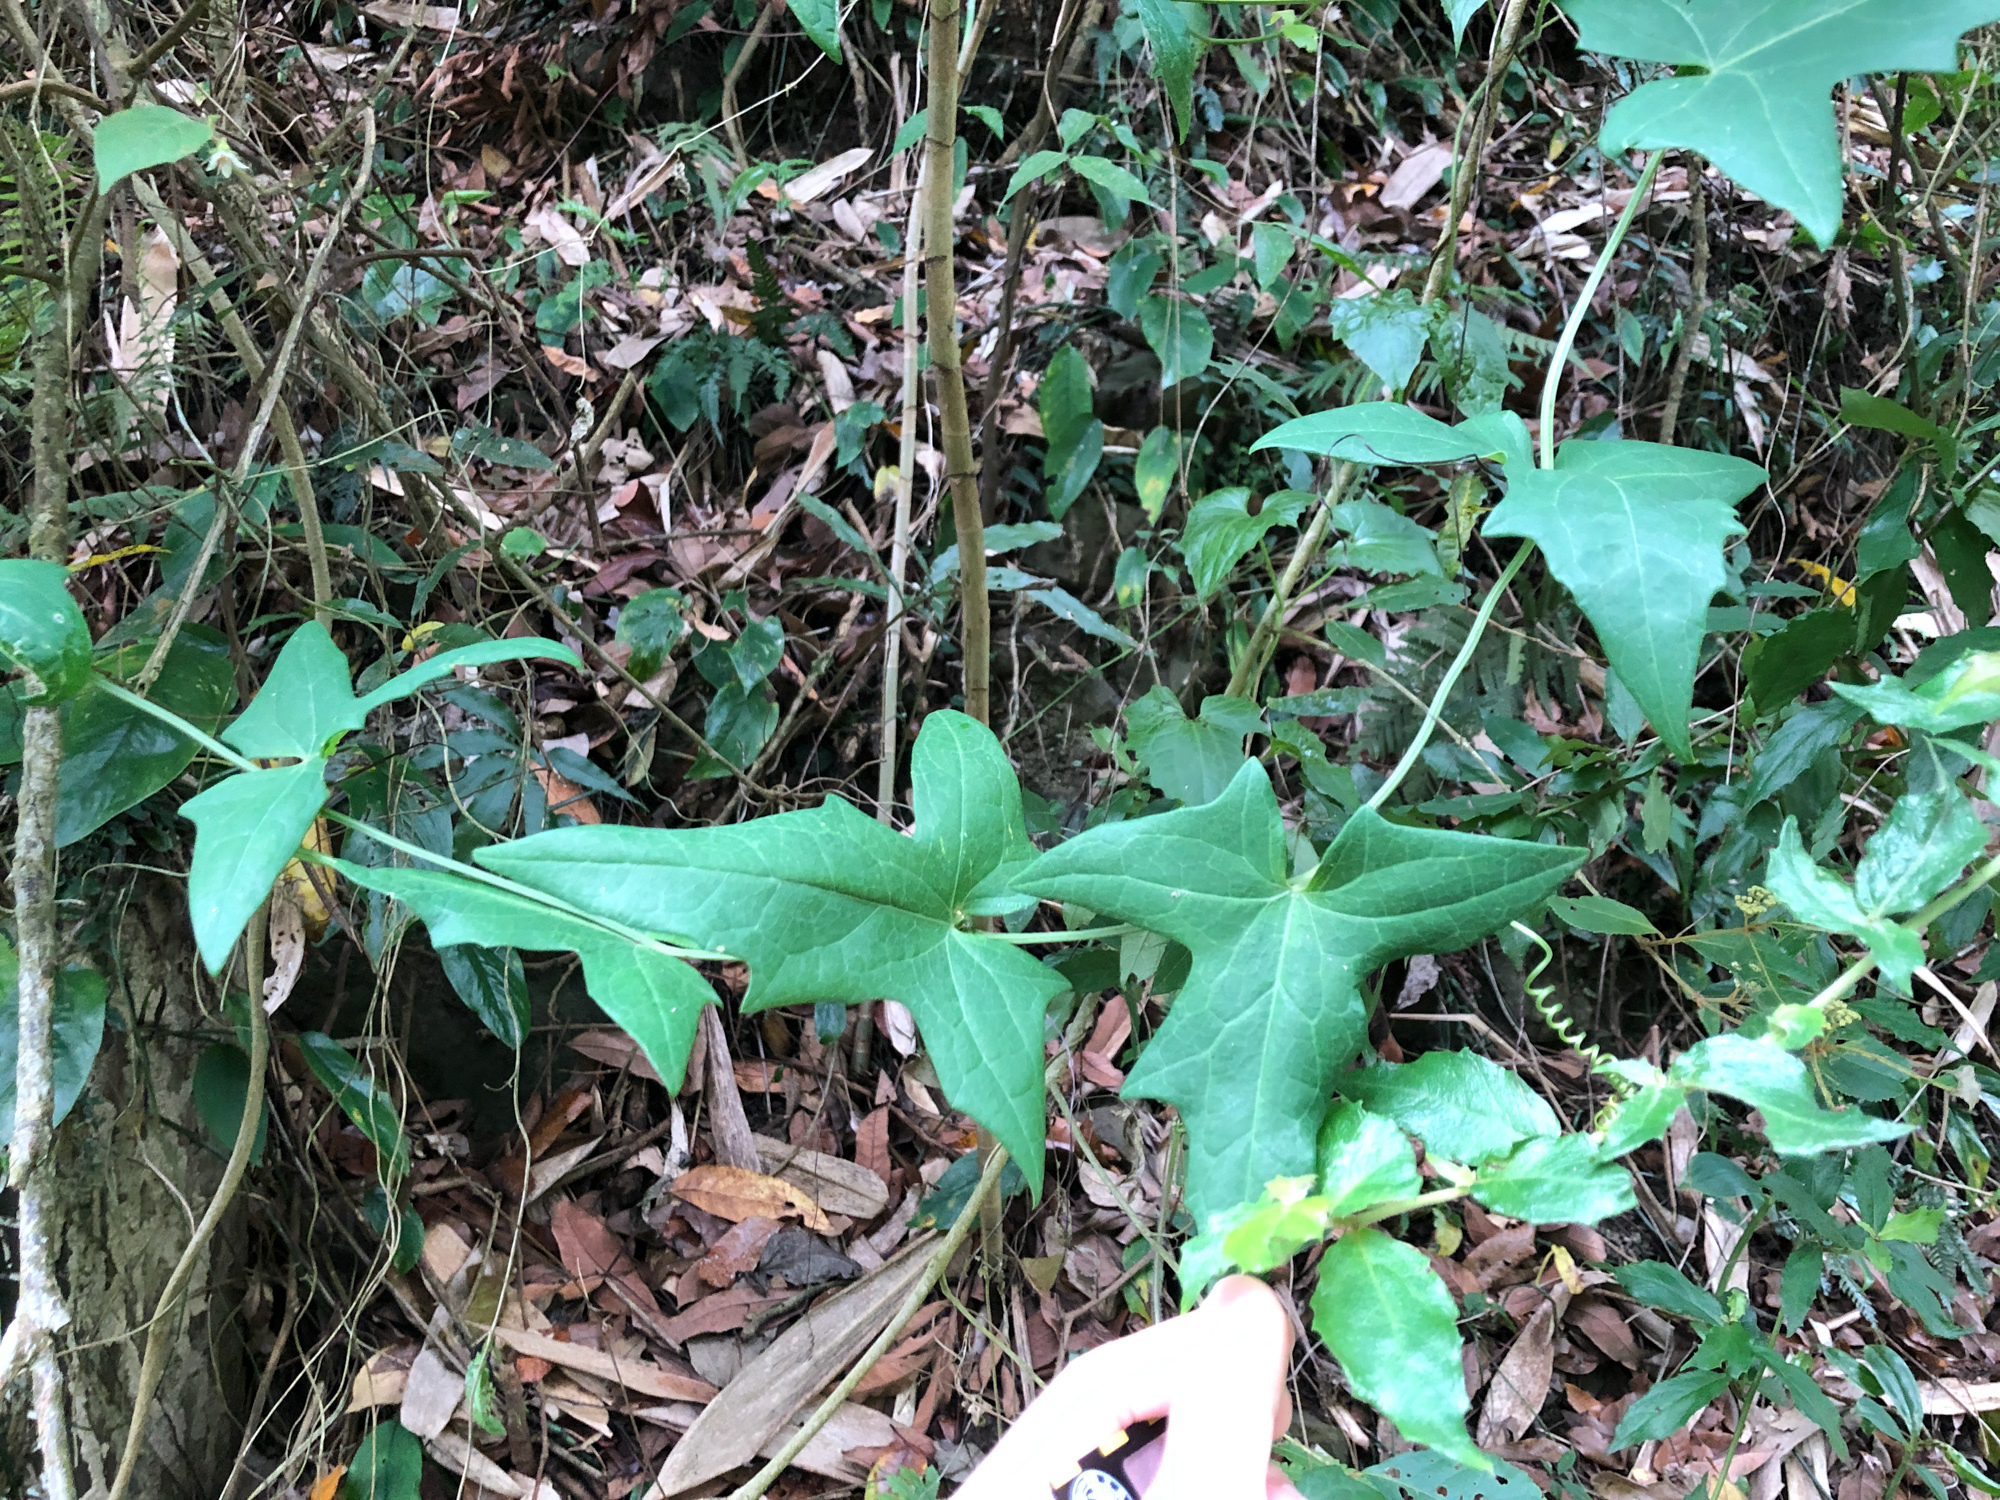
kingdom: Plantae
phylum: Tracheophyta
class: Magnoliopsida
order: Cucurbitales
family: Cucurbitaceae
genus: Solena
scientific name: Solena amplexicaulis
